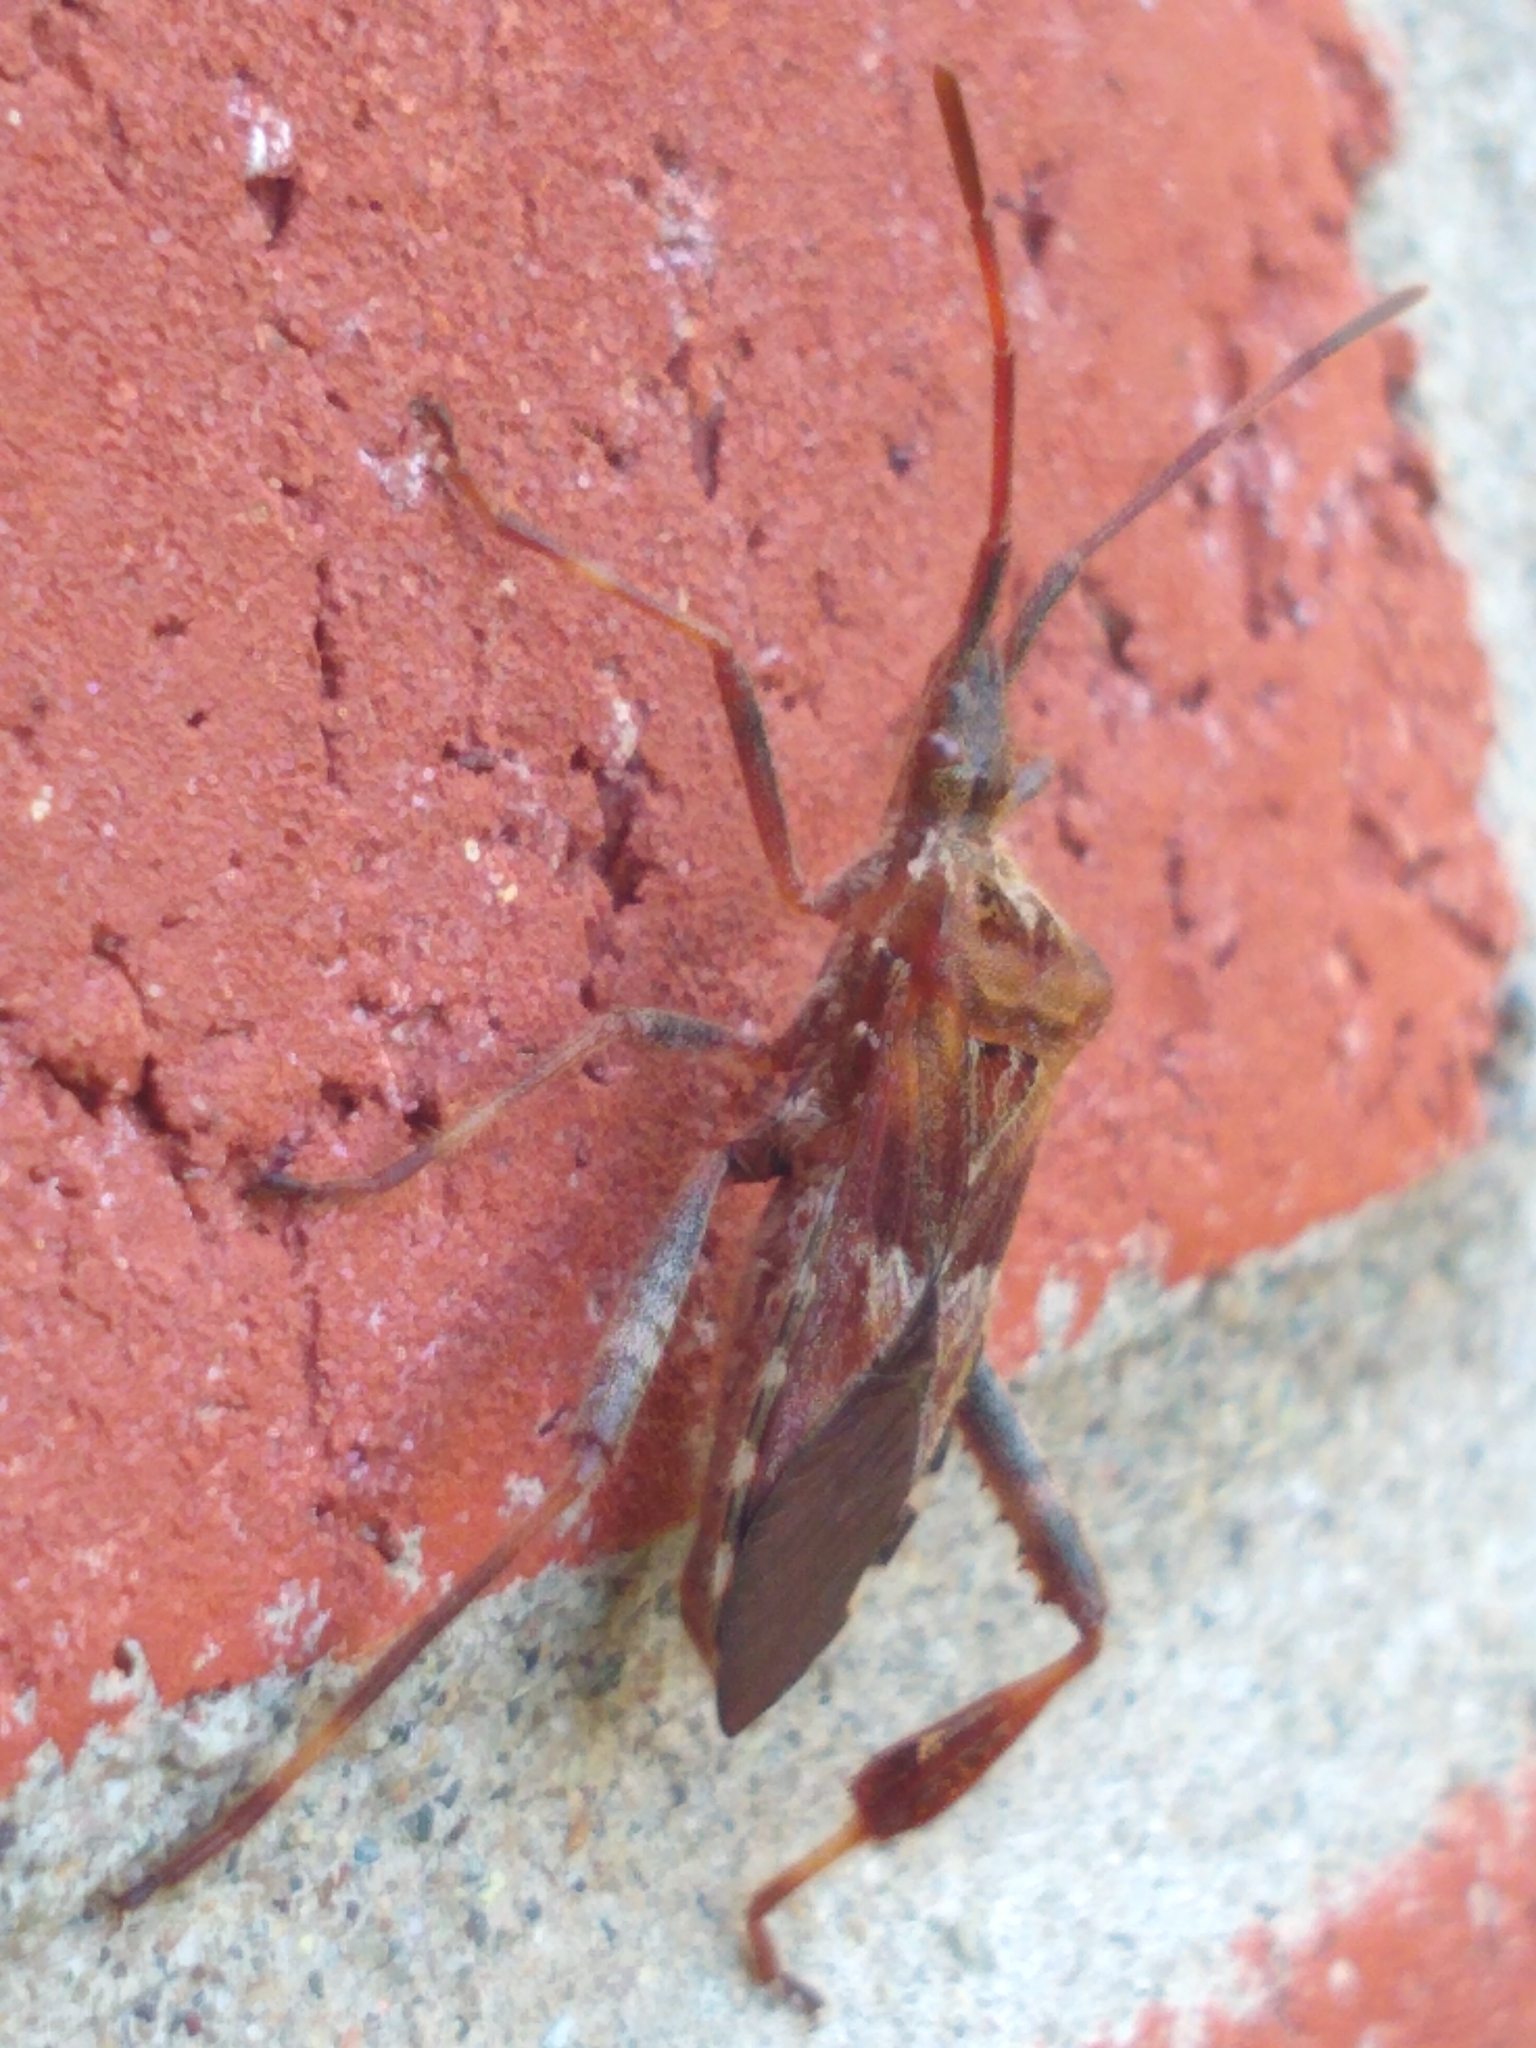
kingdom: Animalia
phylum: Arthropoda
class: Insecta
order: Hemiptera
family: Coreidae
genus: Leptoglossus
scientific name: Leptoglossus occidentalis
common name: Western conifer-seed bug
